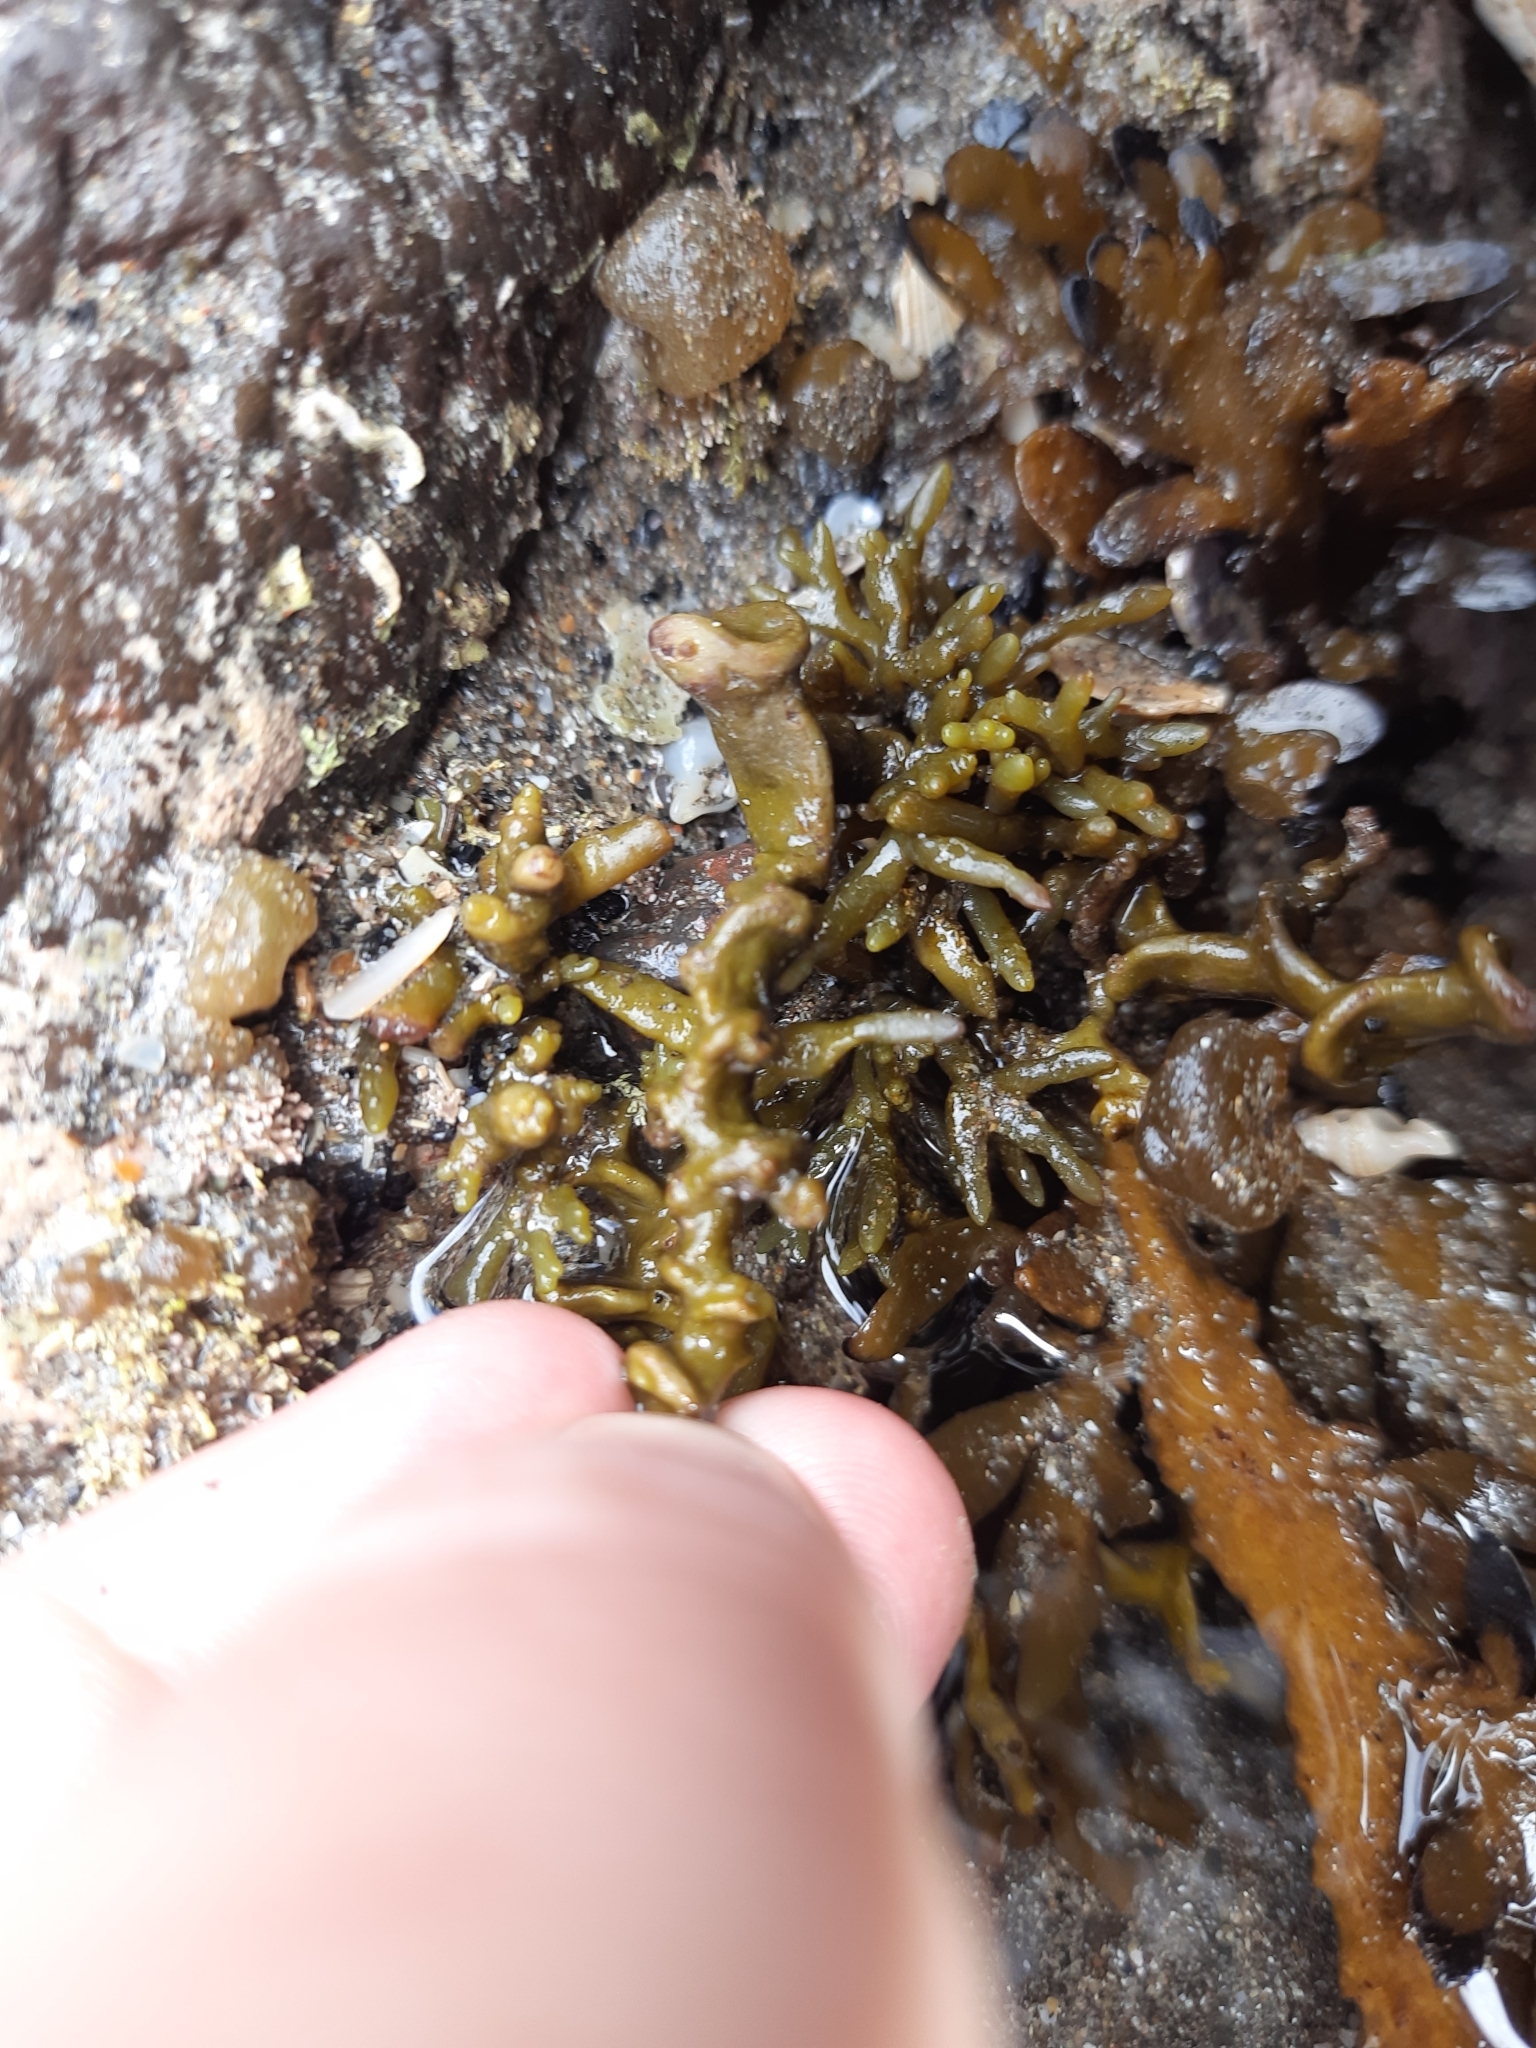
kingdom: Chromista
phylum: Ochrophyta
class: Phaeophyceae
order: Fucales
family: Sargassaceae
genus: Cystophora
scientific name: Cystophora scalaris
